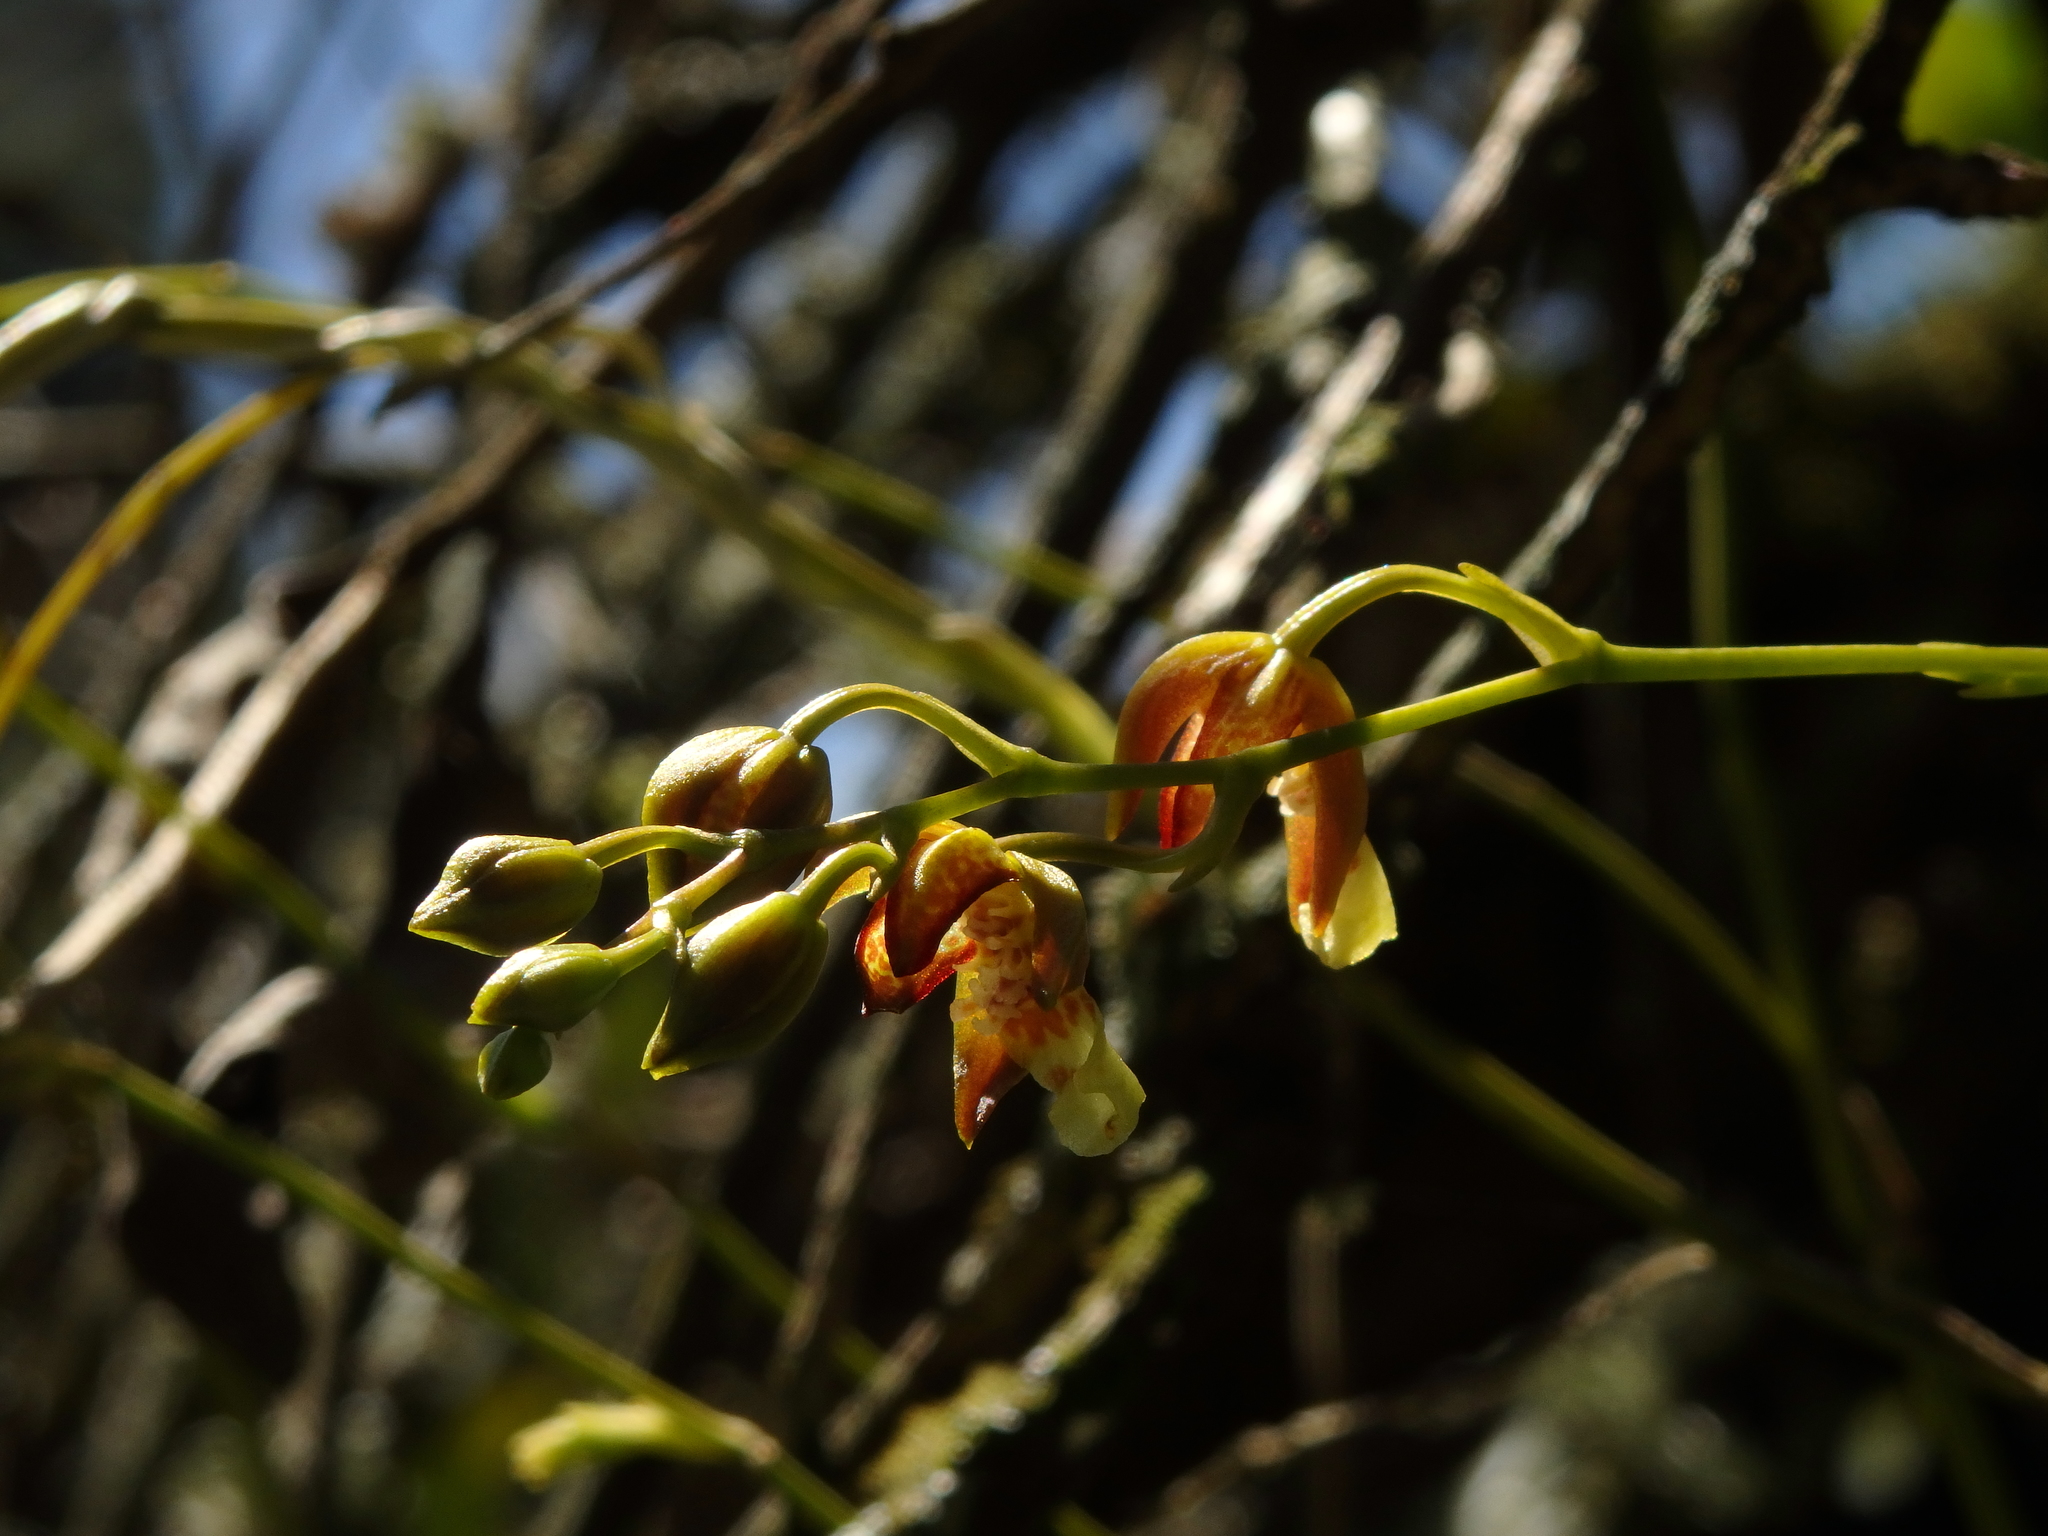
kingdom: Plantae
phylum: Tracheophyta
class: Liliopsida
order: Asparagales
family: Orchidaceae
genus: Leochilus
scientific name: Leochilus carinatus
